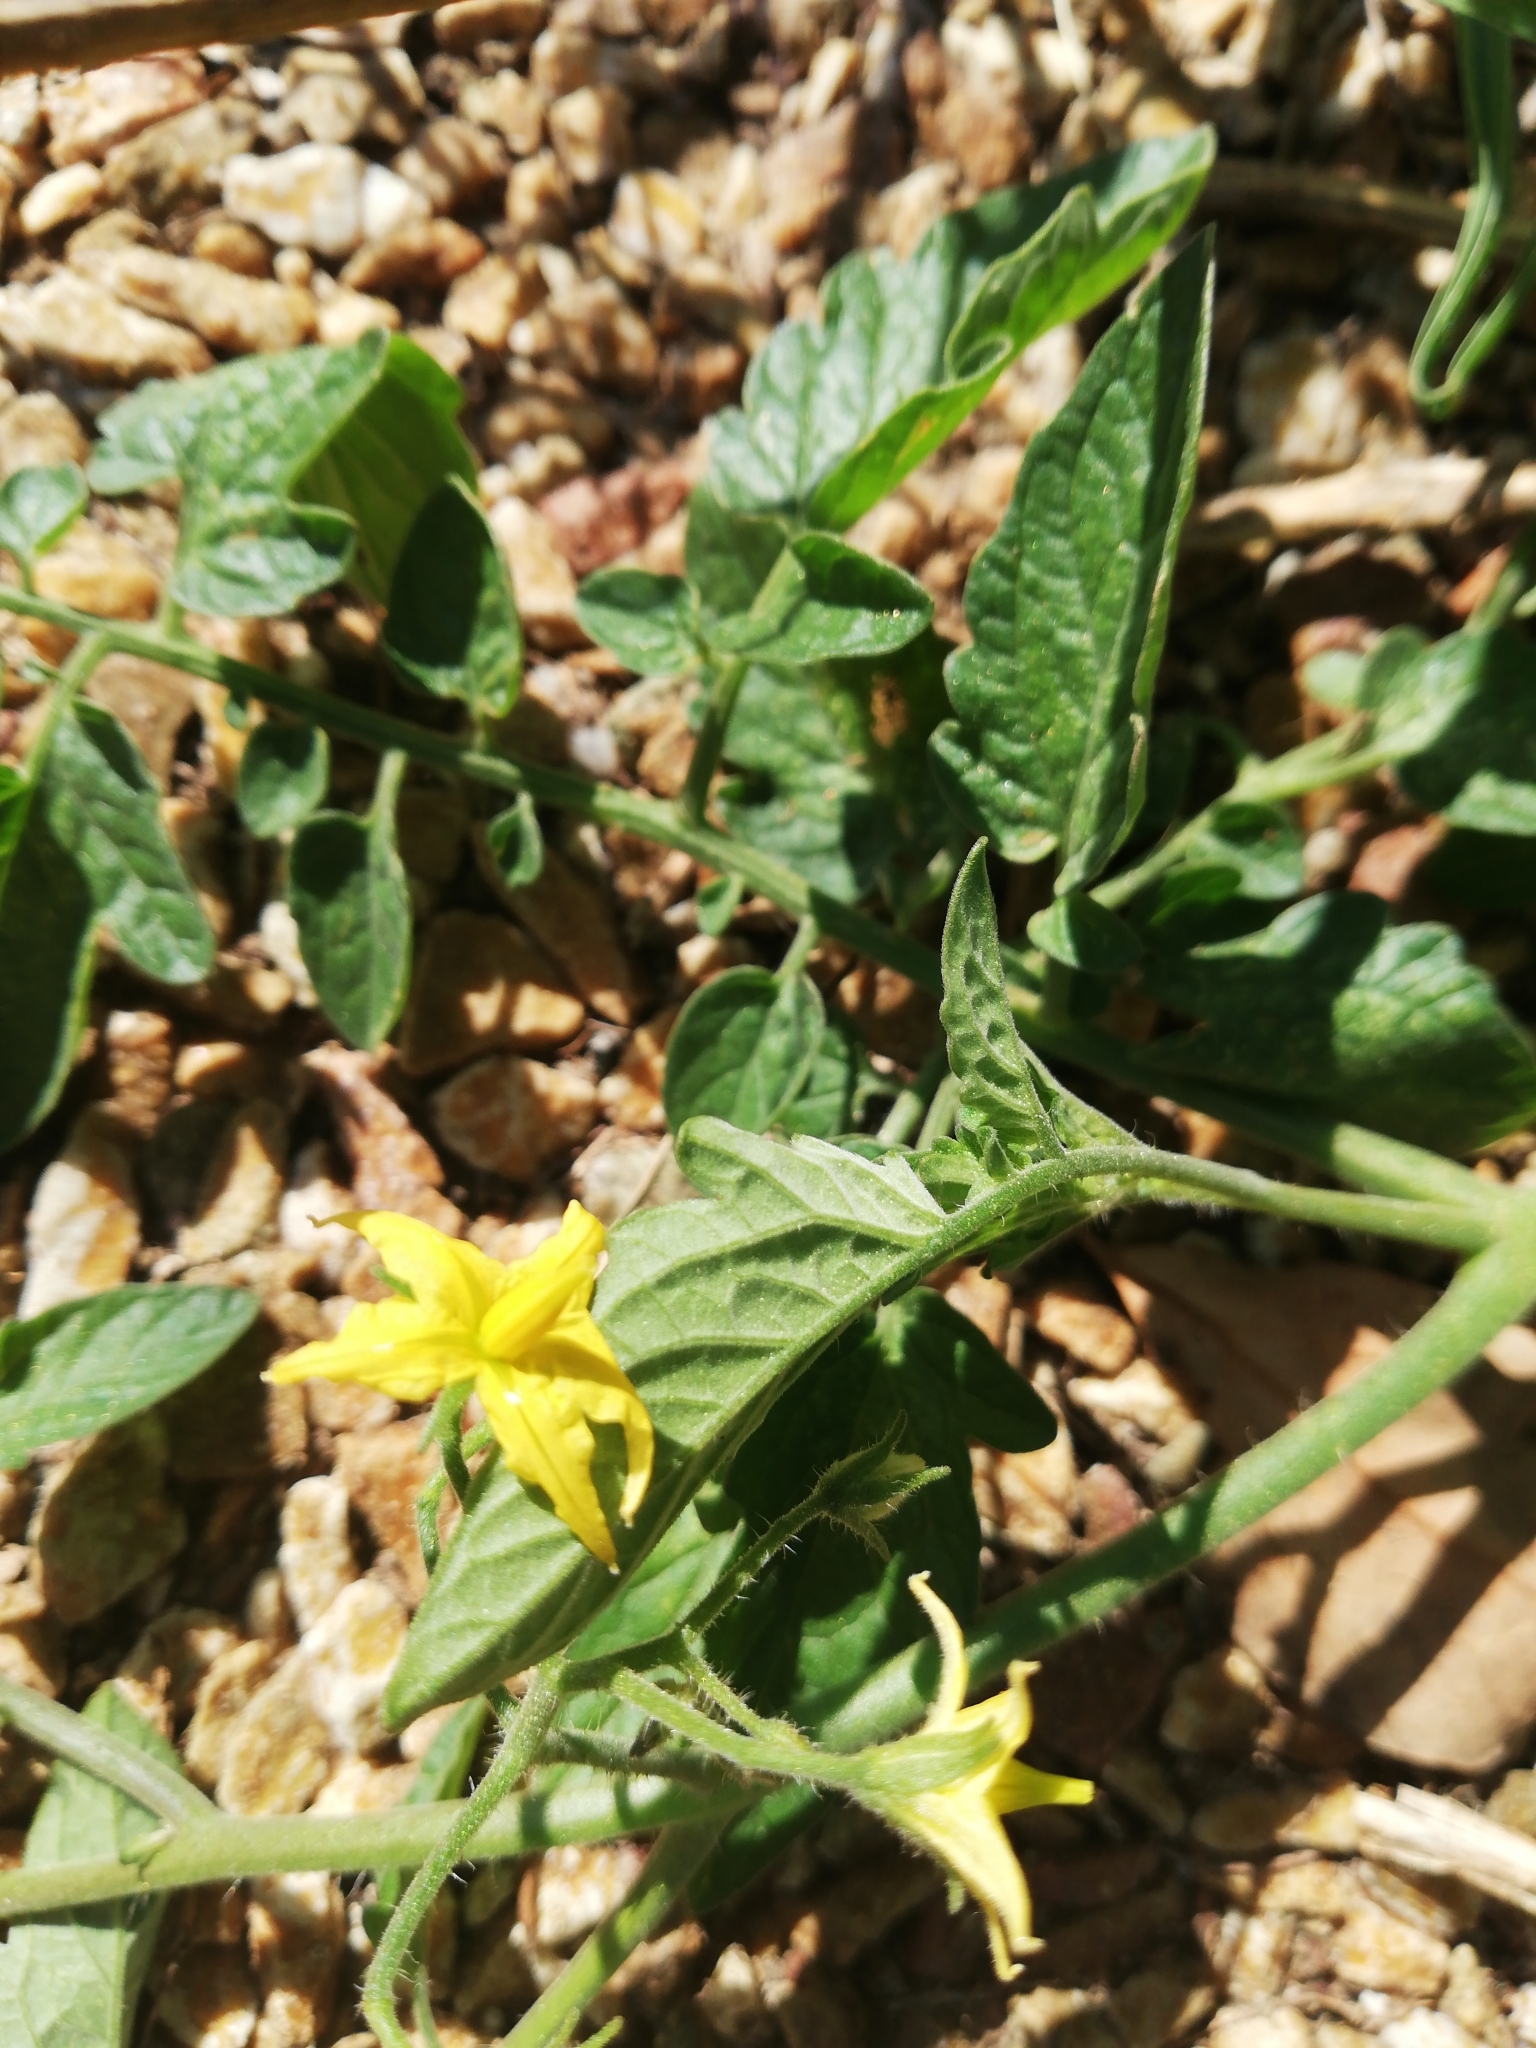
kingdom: Plantae
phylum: Tracheophyta
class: Magnoliopsida
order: Solanales
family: Solanaceae
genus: Solanum
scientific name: Solanum lycopersicum
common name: Garden tomato
